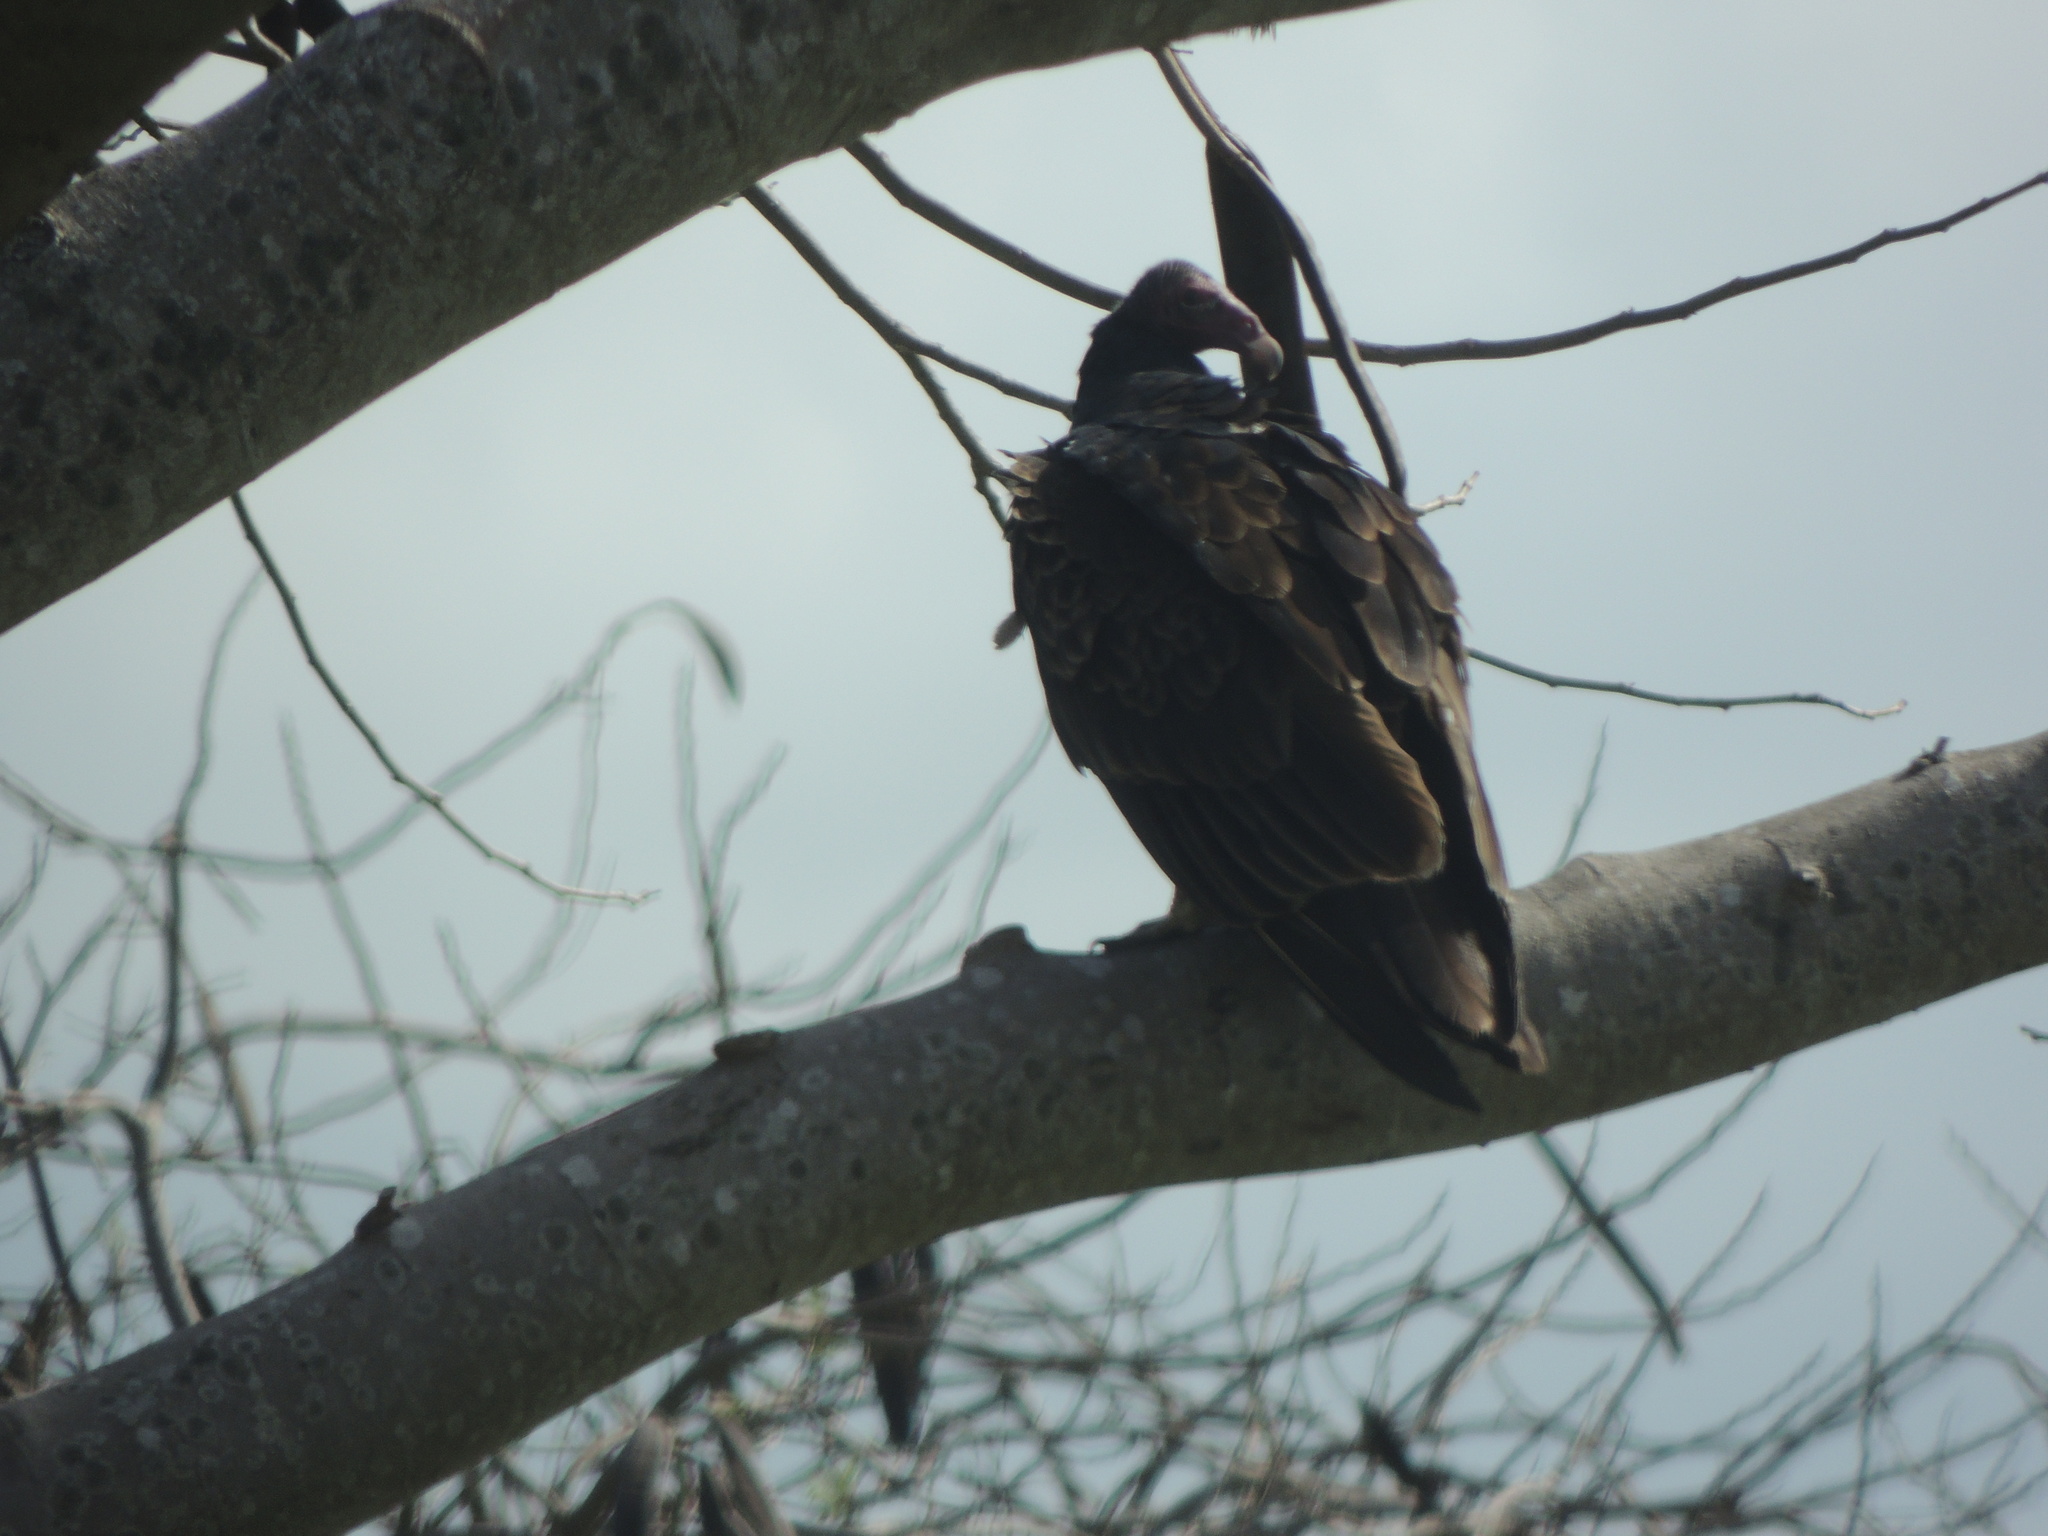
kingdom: Animalia
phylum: Chordata
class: Aves
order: Accipitriformes
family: Cathartidae
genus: Cathartes
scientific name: Cathartes aura
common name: Turkey vulture
